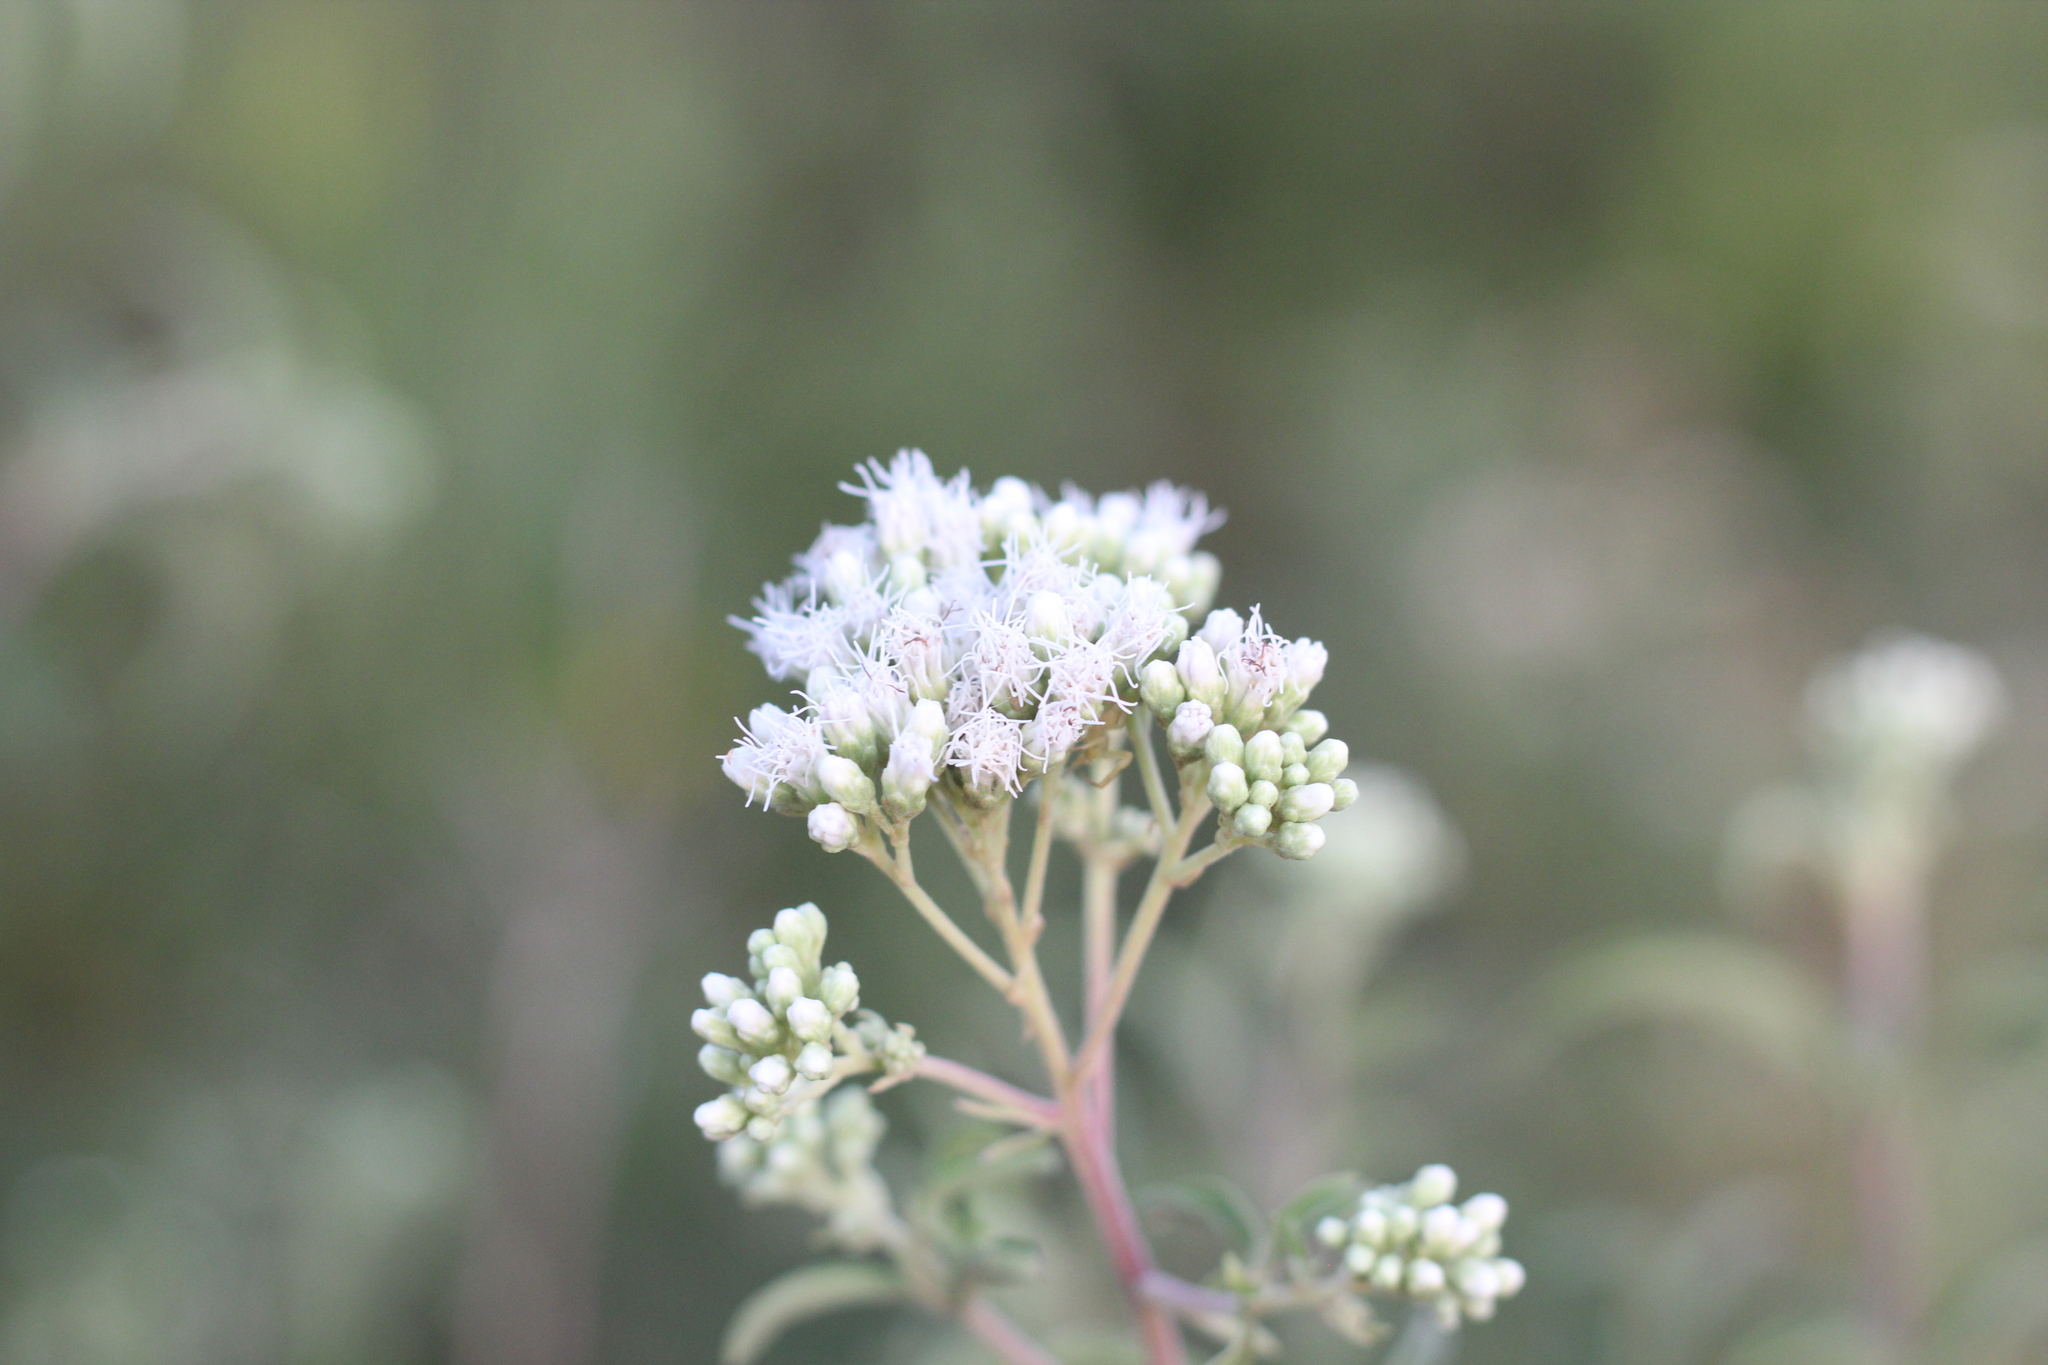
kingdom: Plantae
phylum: Tracheophyta
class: Magnoliopsida
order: Asterales
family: Asteraceae
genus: Austroeupatorium
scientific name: Austroeupatorium inulifolium
